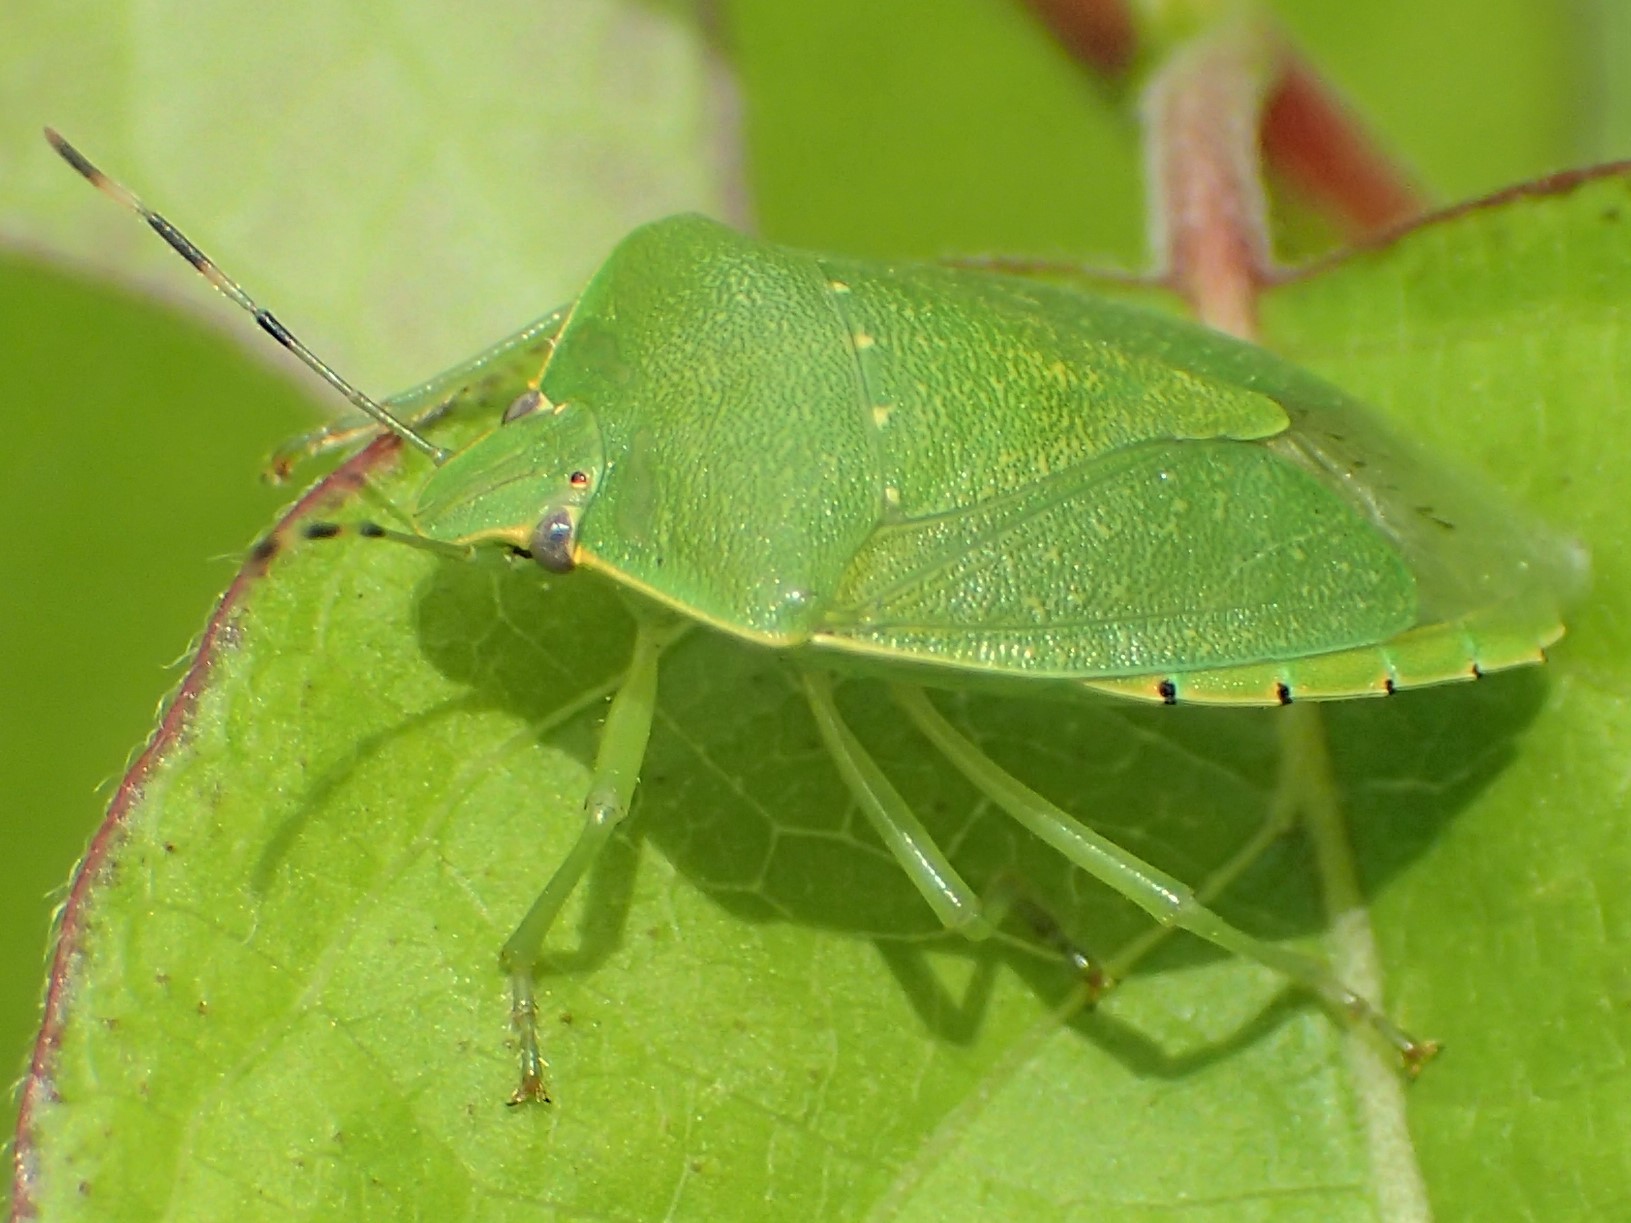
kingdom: Animalia
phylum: Arthropoda
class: Insecta
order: Hemiptera
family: Pentatomidae
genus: Chinavia
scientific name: Chinavia hilaris
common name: Green stink bug
